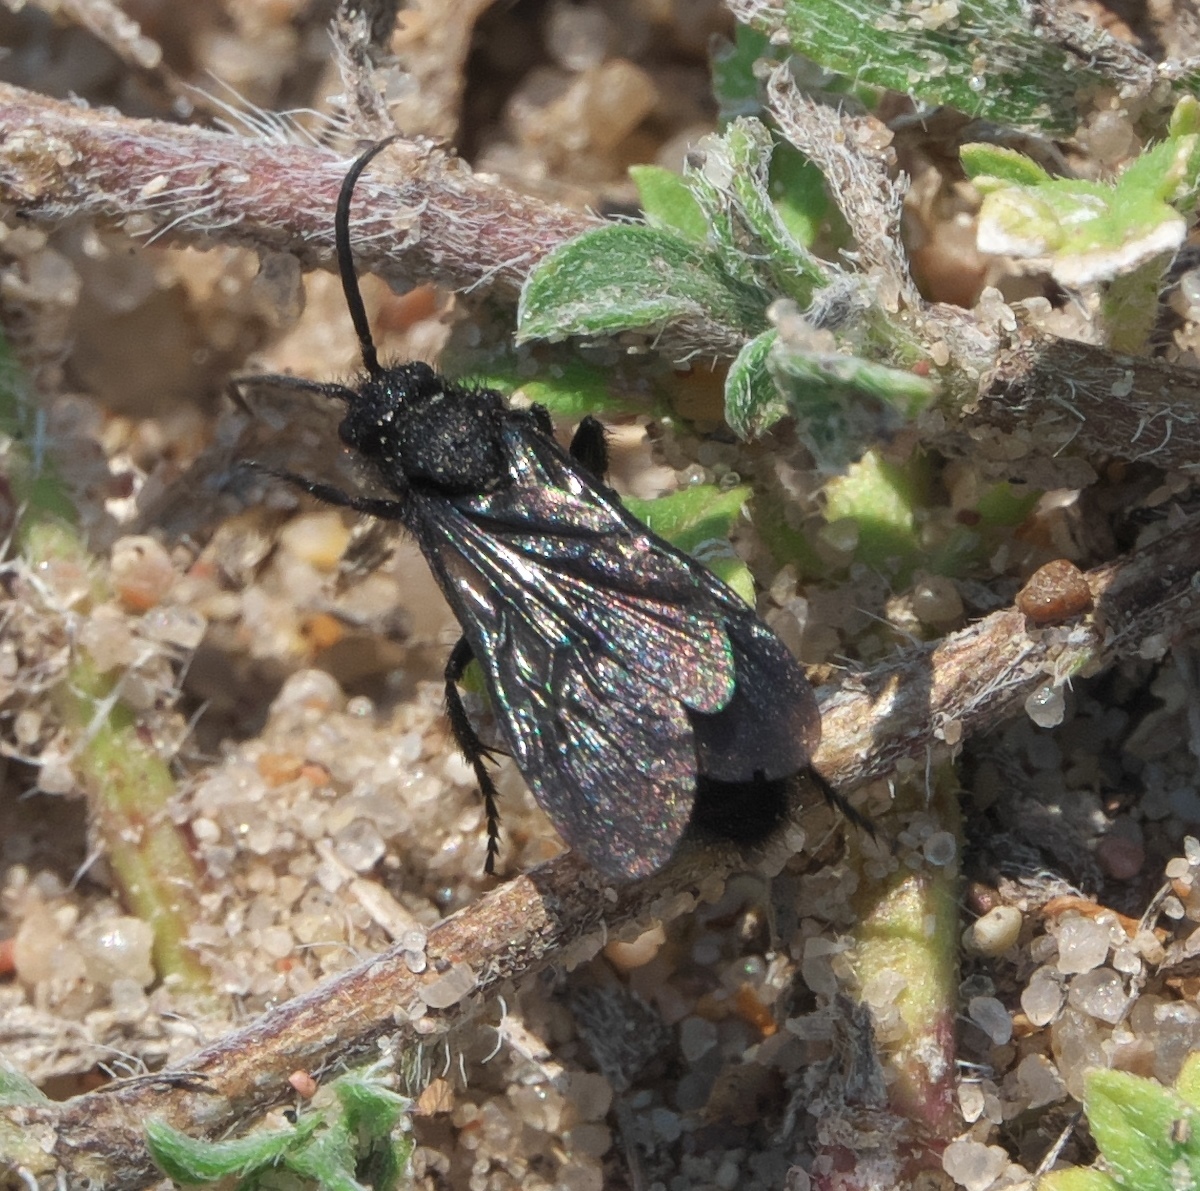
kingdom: Animalia
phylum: Arthropoda
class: Insecta
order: Hymenoptera
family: Mutillidae
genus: Dasymutilla
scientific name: Dasymutilla
